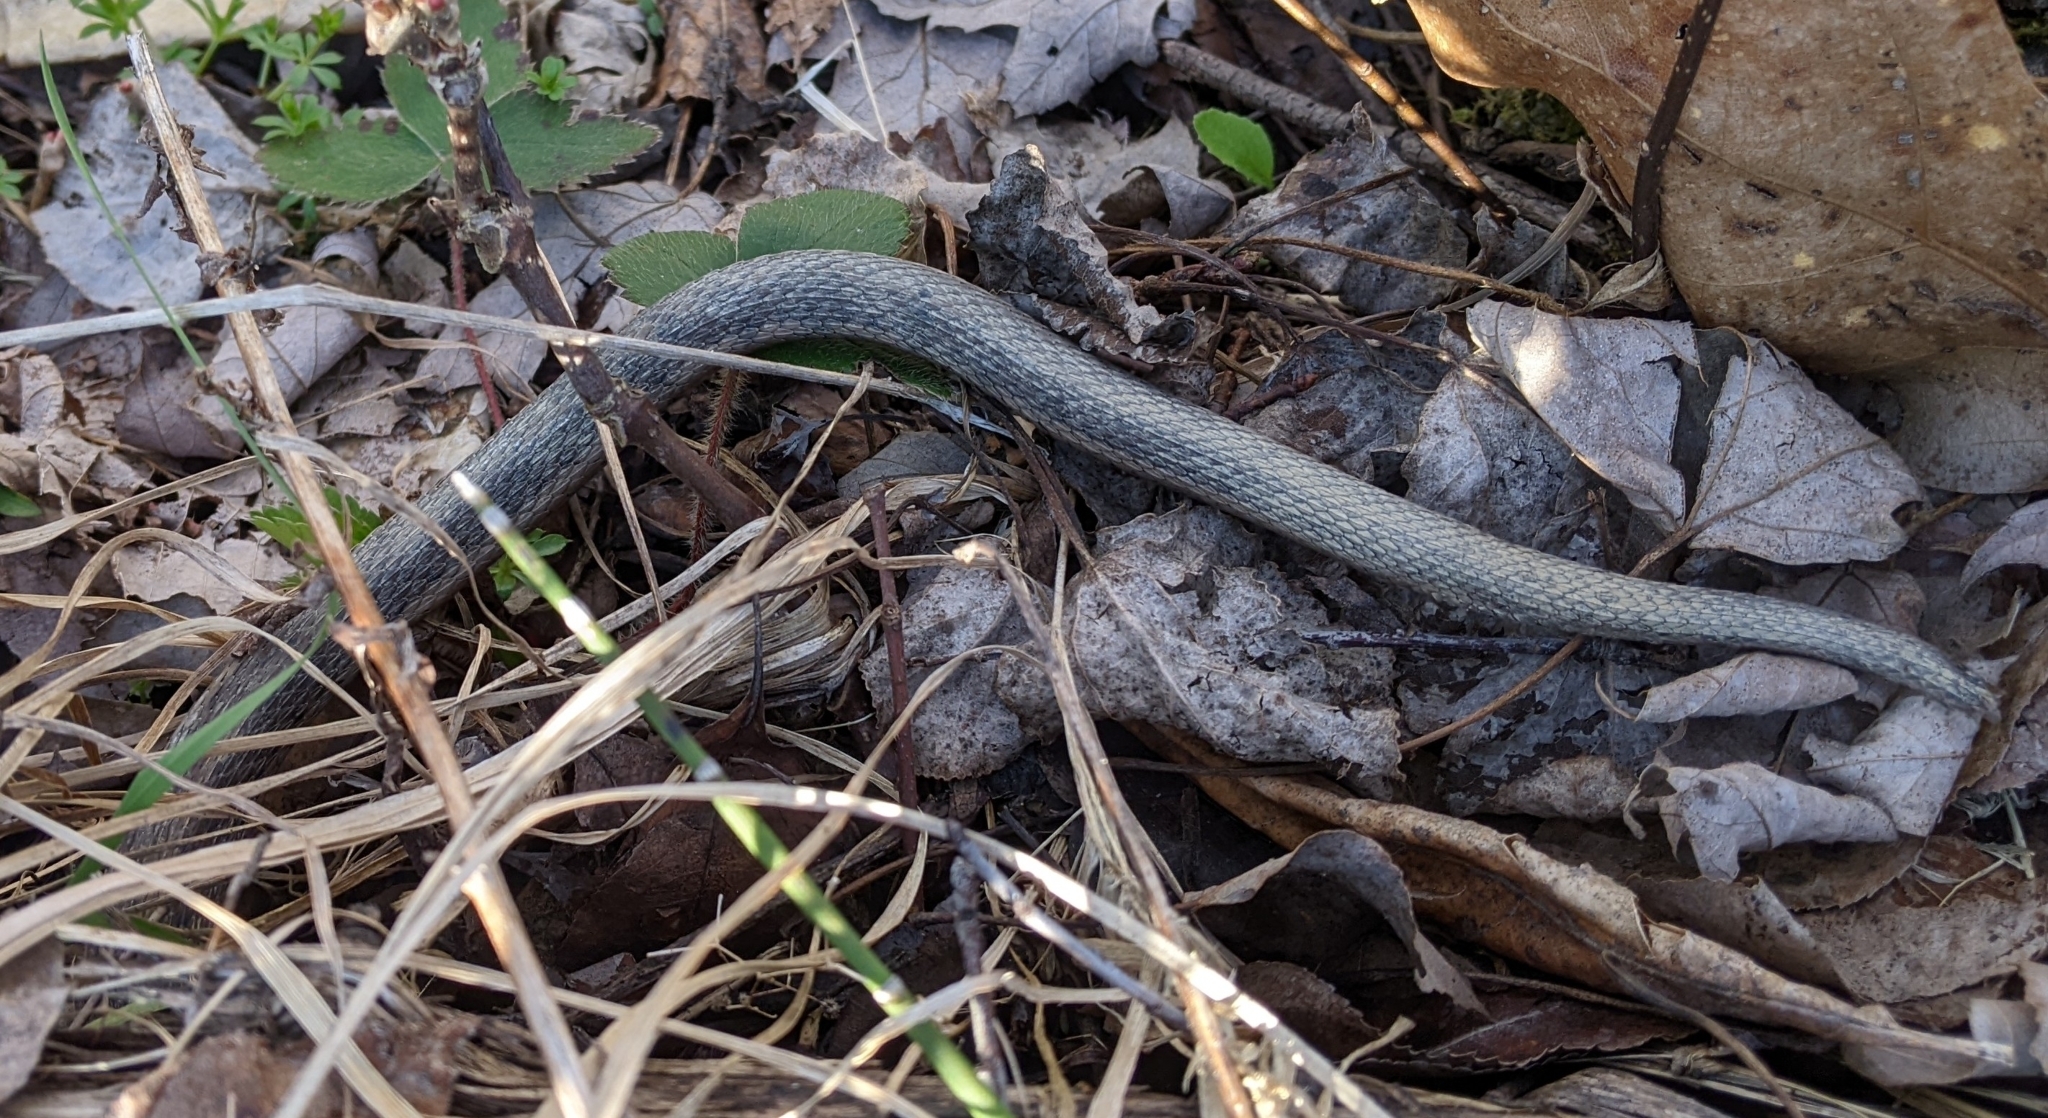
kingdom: Animalia
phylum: Chordata
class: Squamata
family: Colubridae
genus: Regina
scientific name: Regina septemvittata
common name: Queen snake
